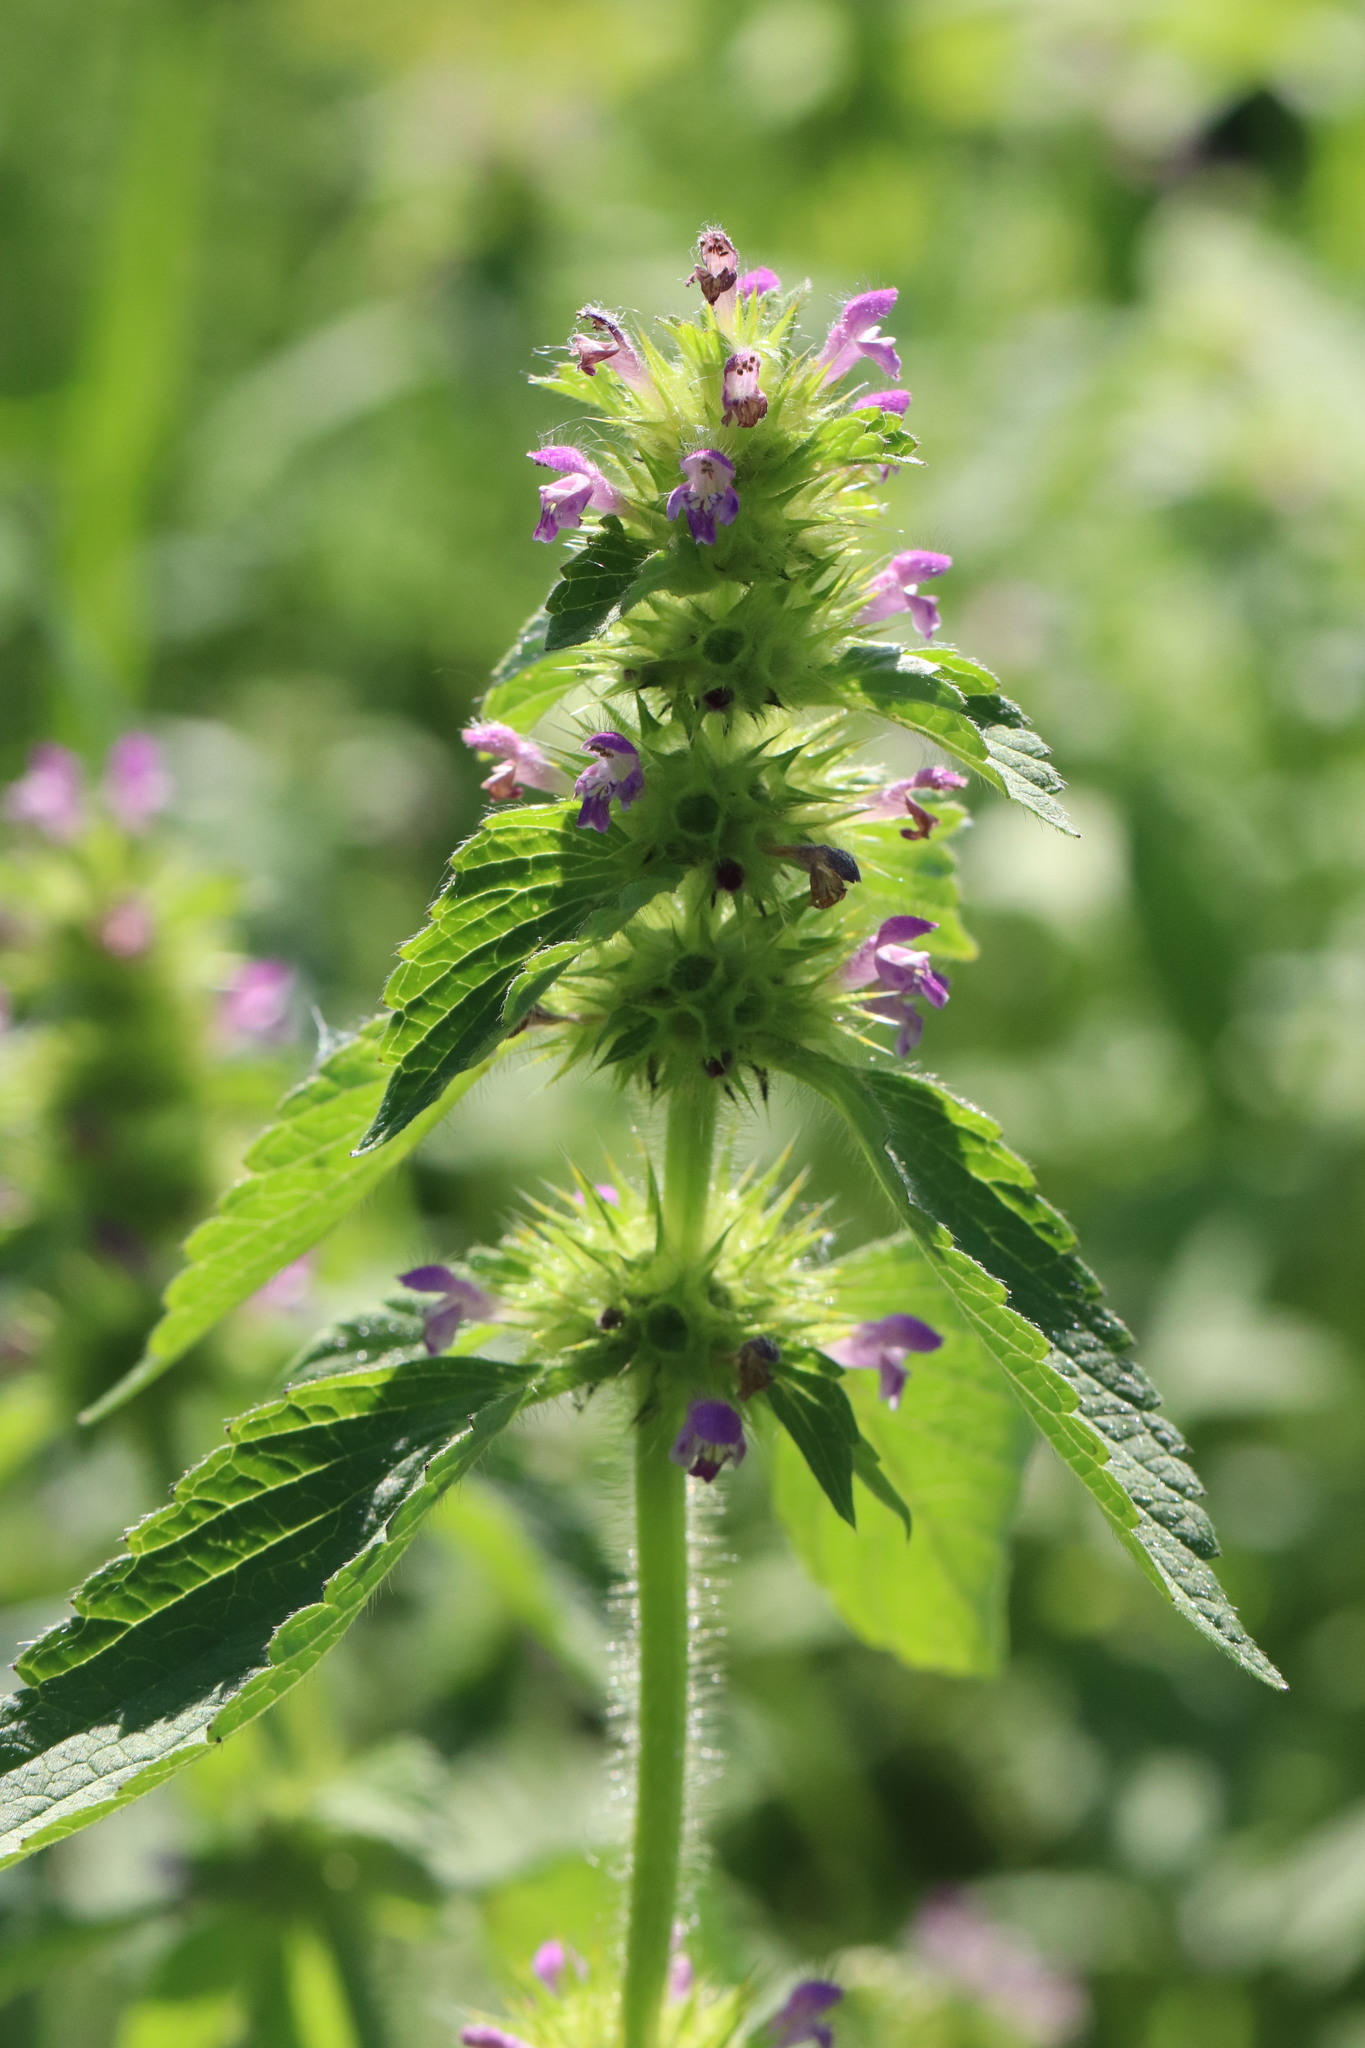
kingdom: Plantae
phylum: Tracheophyta
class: Magnoliopsida
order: Lamiales
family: Lamiaceae
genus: Galeopsis
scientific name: Galeopsis bifida
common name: Bifid hemp-nettle
